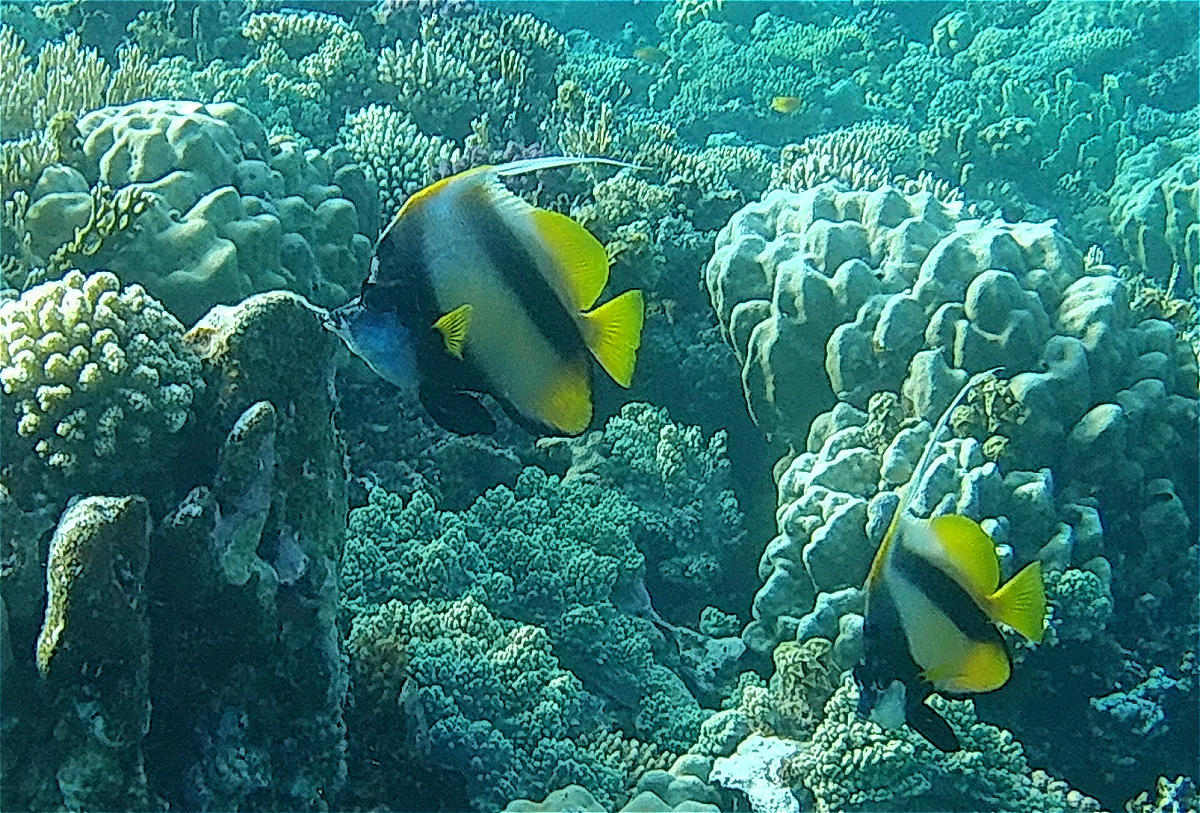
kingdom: Animalia
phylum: Chordata
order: Perciformes
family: Chaetodontidae
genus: Heniochus
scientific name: Heniochus intermedius
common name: Red sea bannerfish
